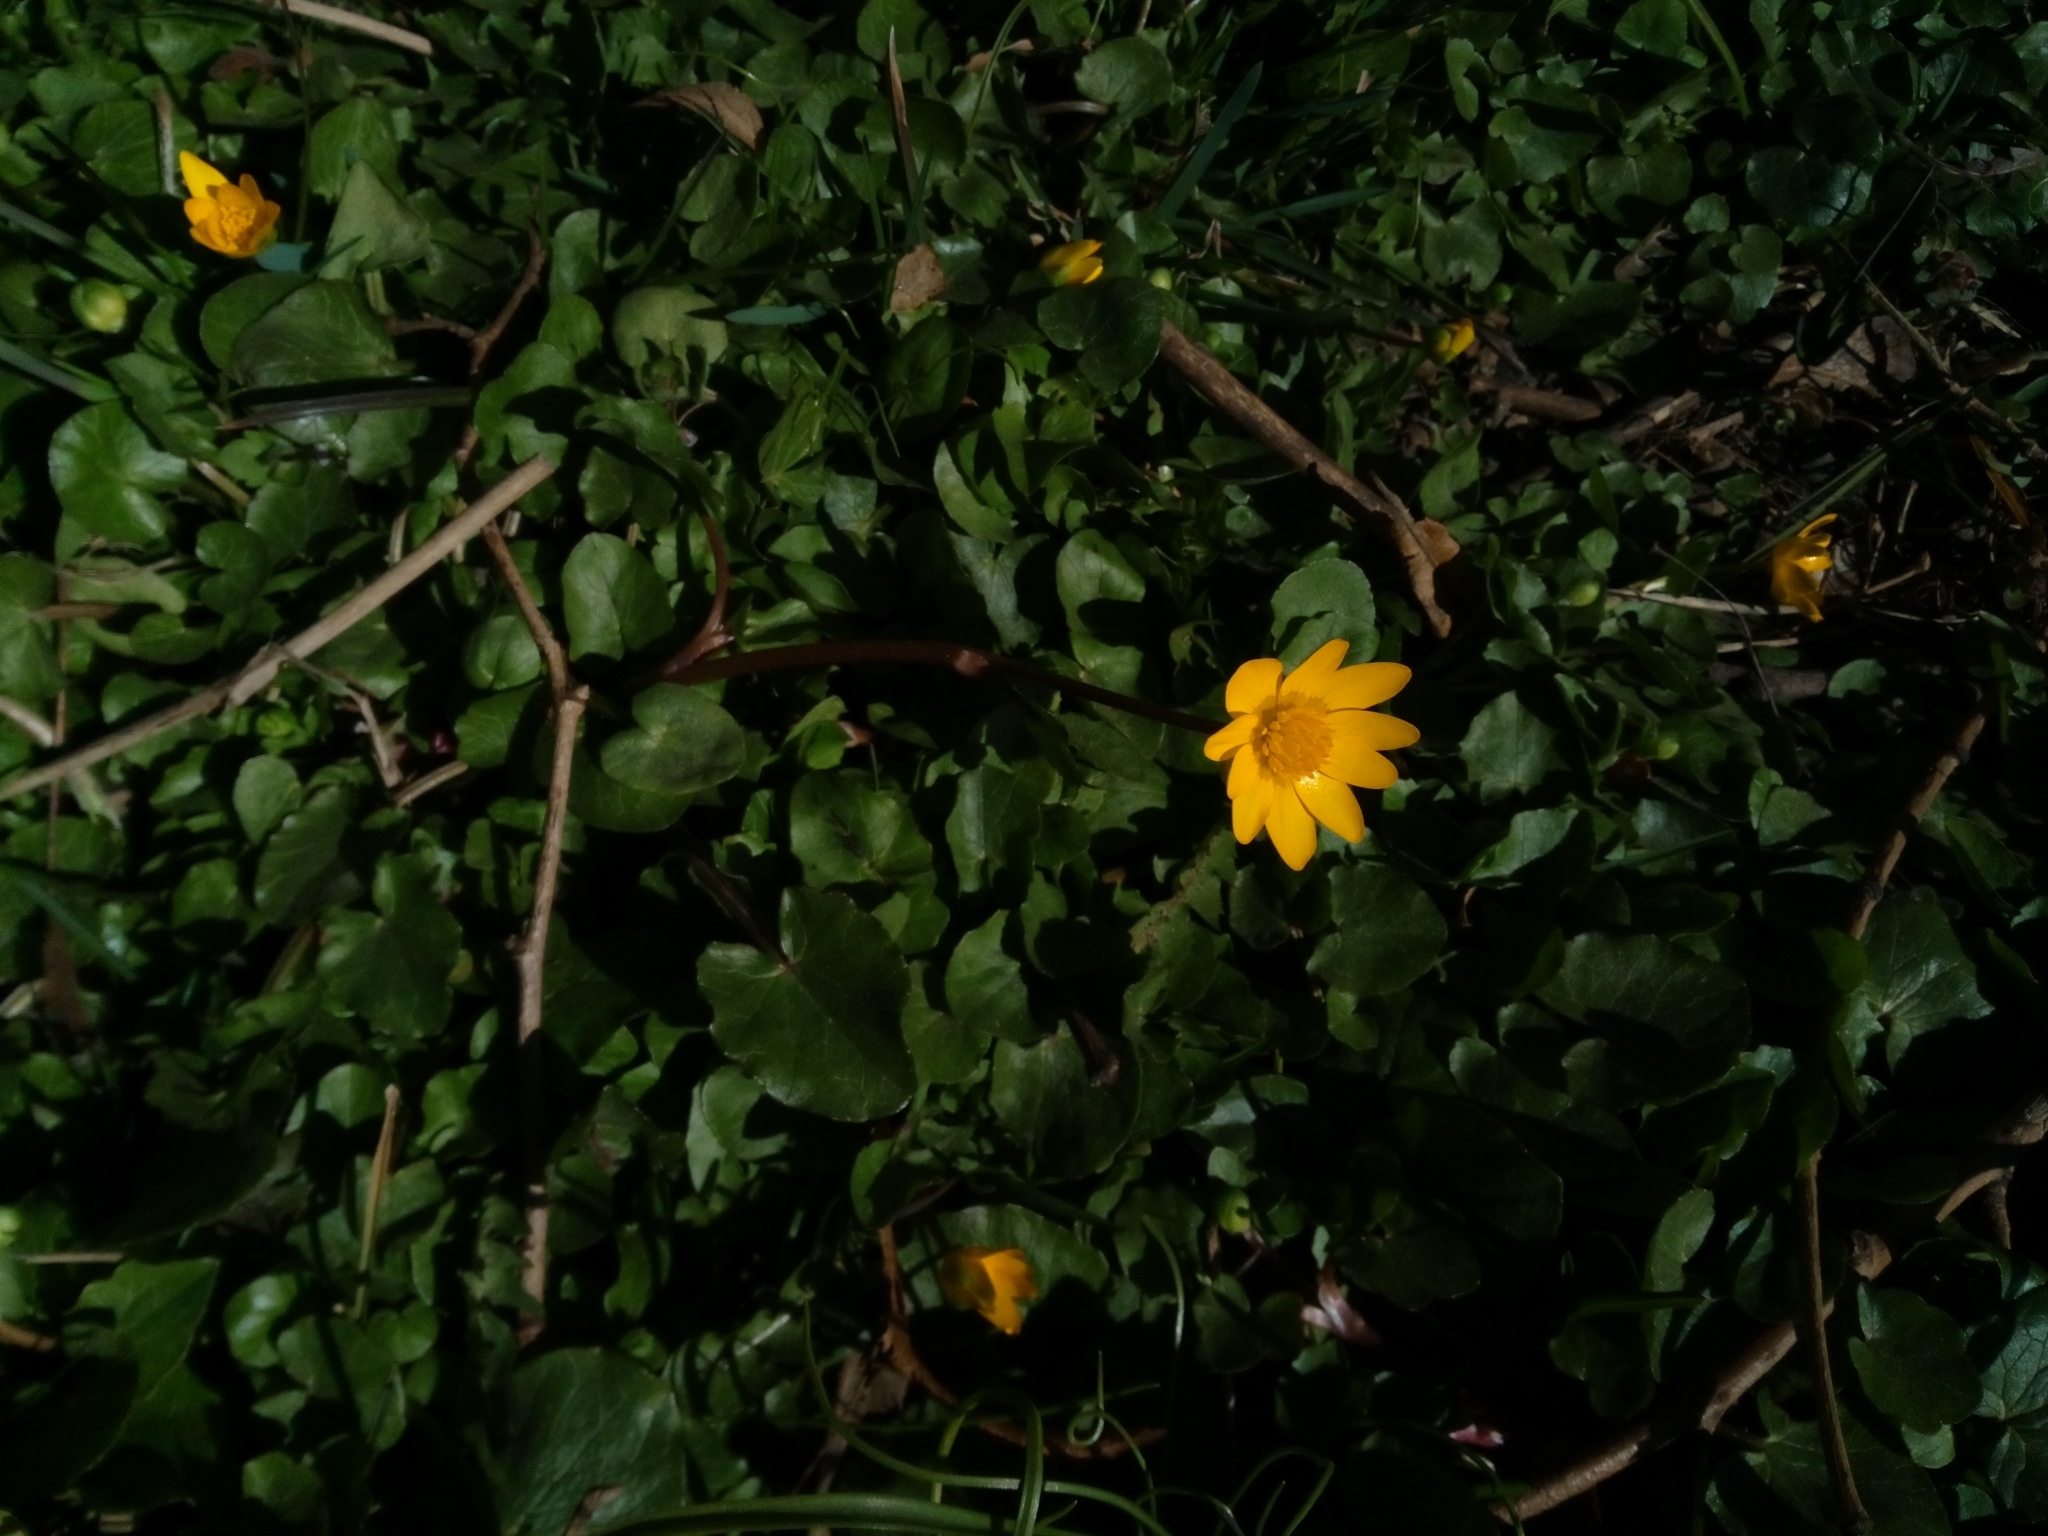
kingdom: Plantae
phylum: Tracheophyta
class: Magnoliopsida
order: Ranunculales
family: Ranunculaceae
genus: Ficaria
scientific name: Ficaria verna
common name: Lesser celandine
